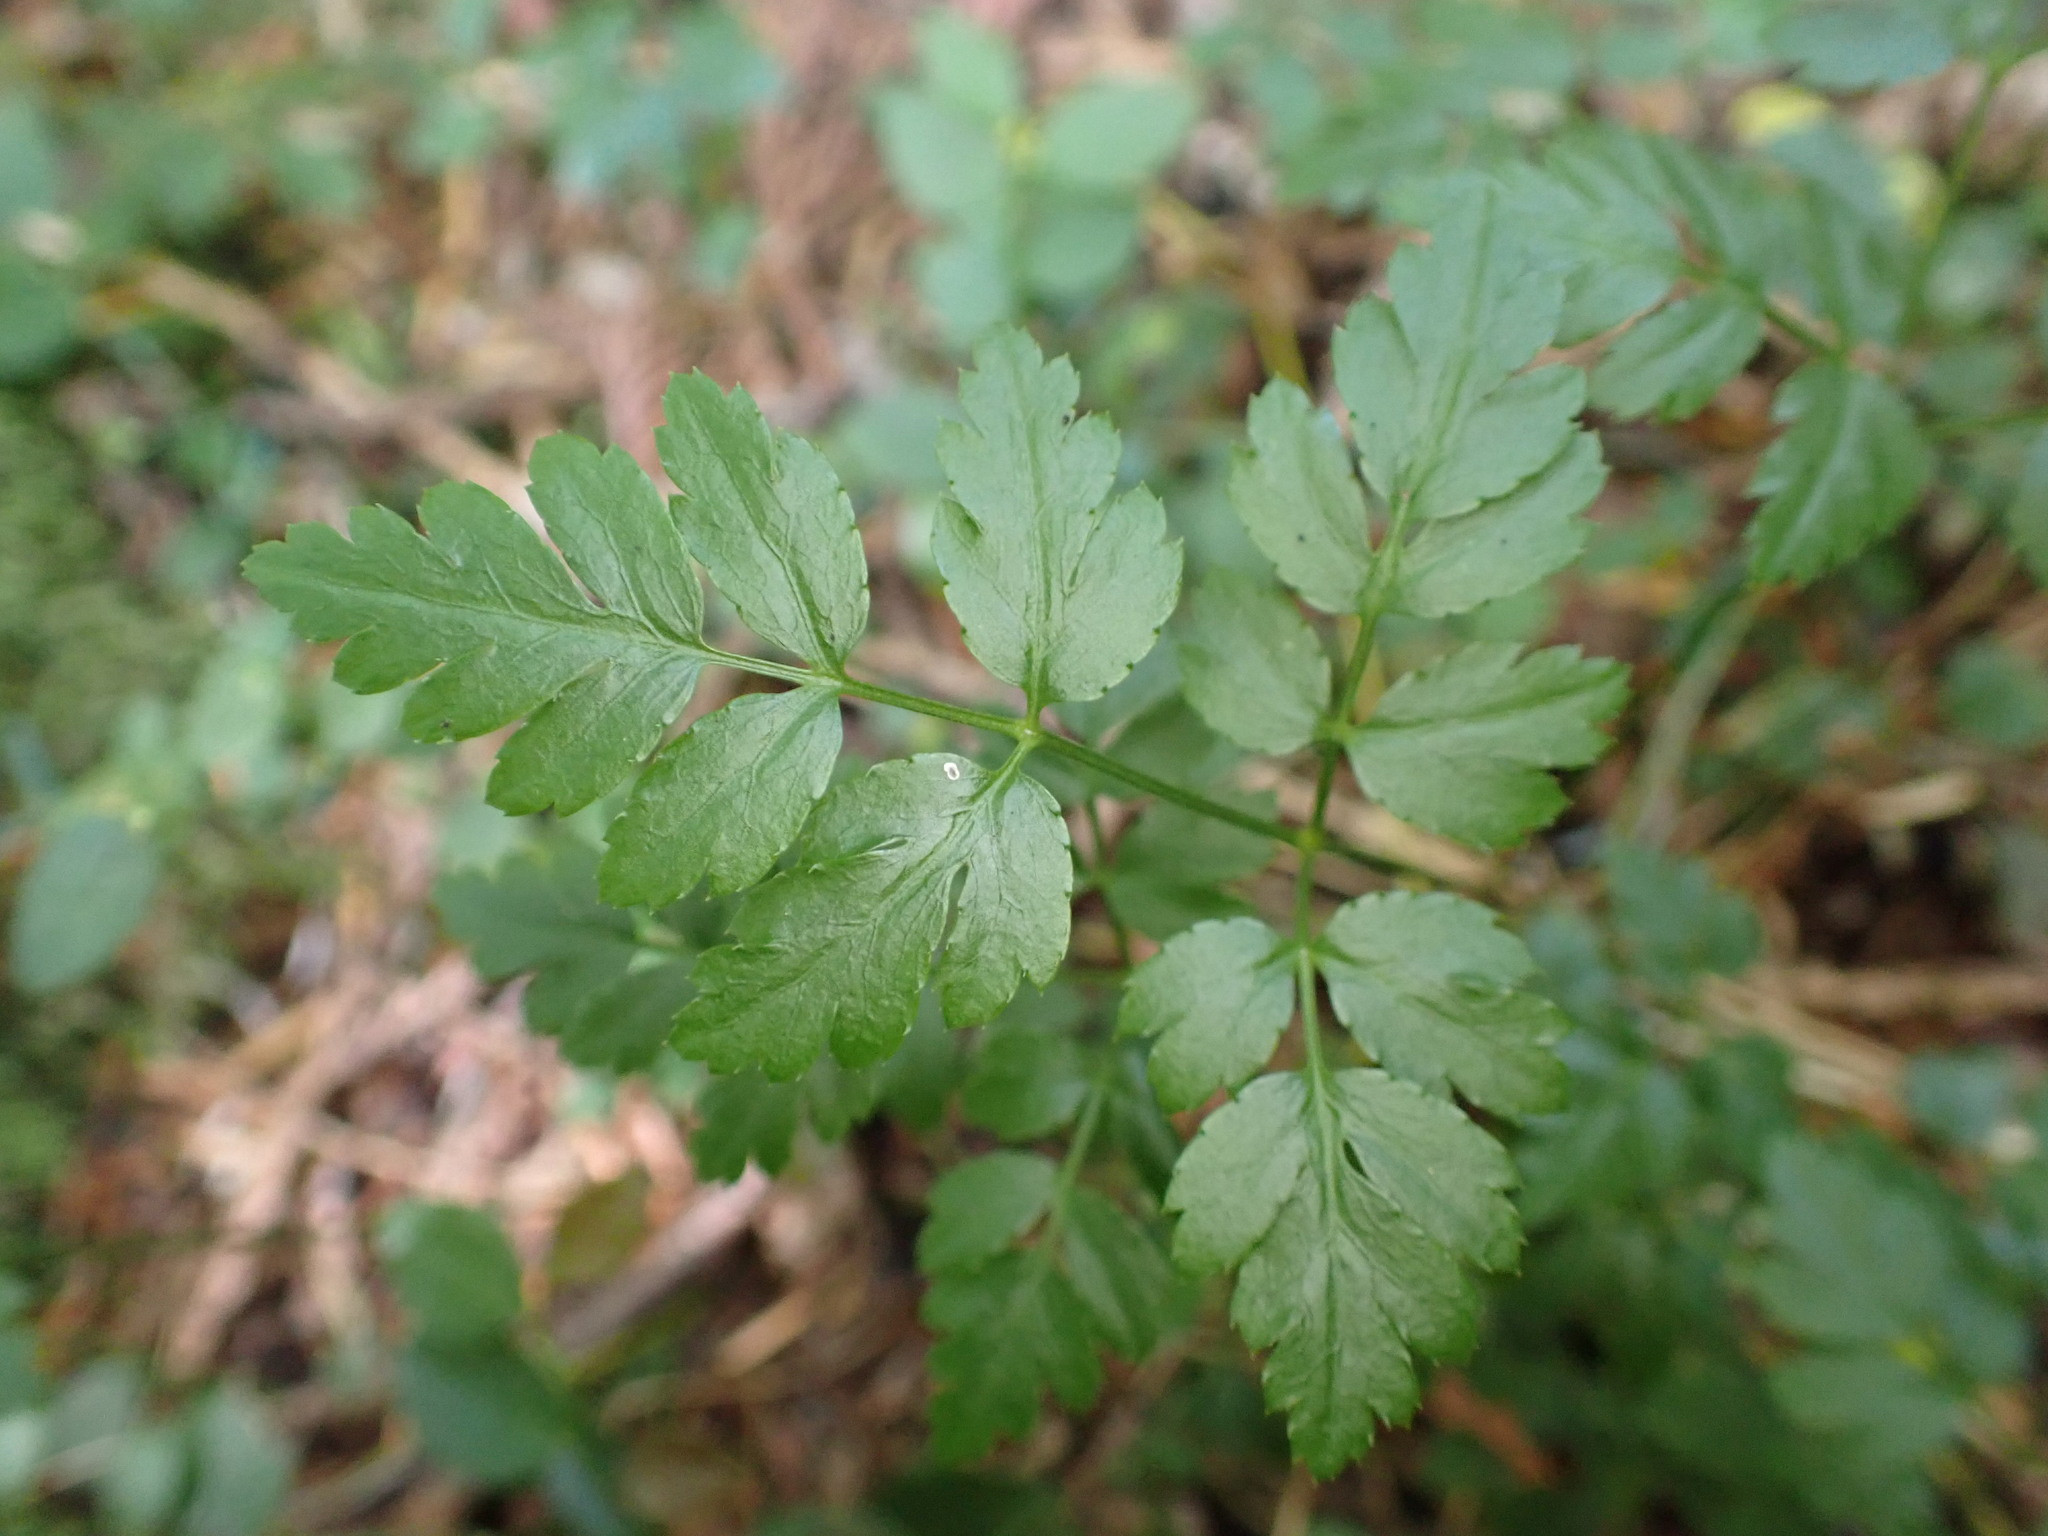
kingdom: Plantae
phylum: Tracheophyta
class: Magnoliopsida
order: Ranunculales
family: Ranunculaceae
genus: Coptis
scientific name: Coptis aspleniifolia
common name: Fern-leaved goldthread
